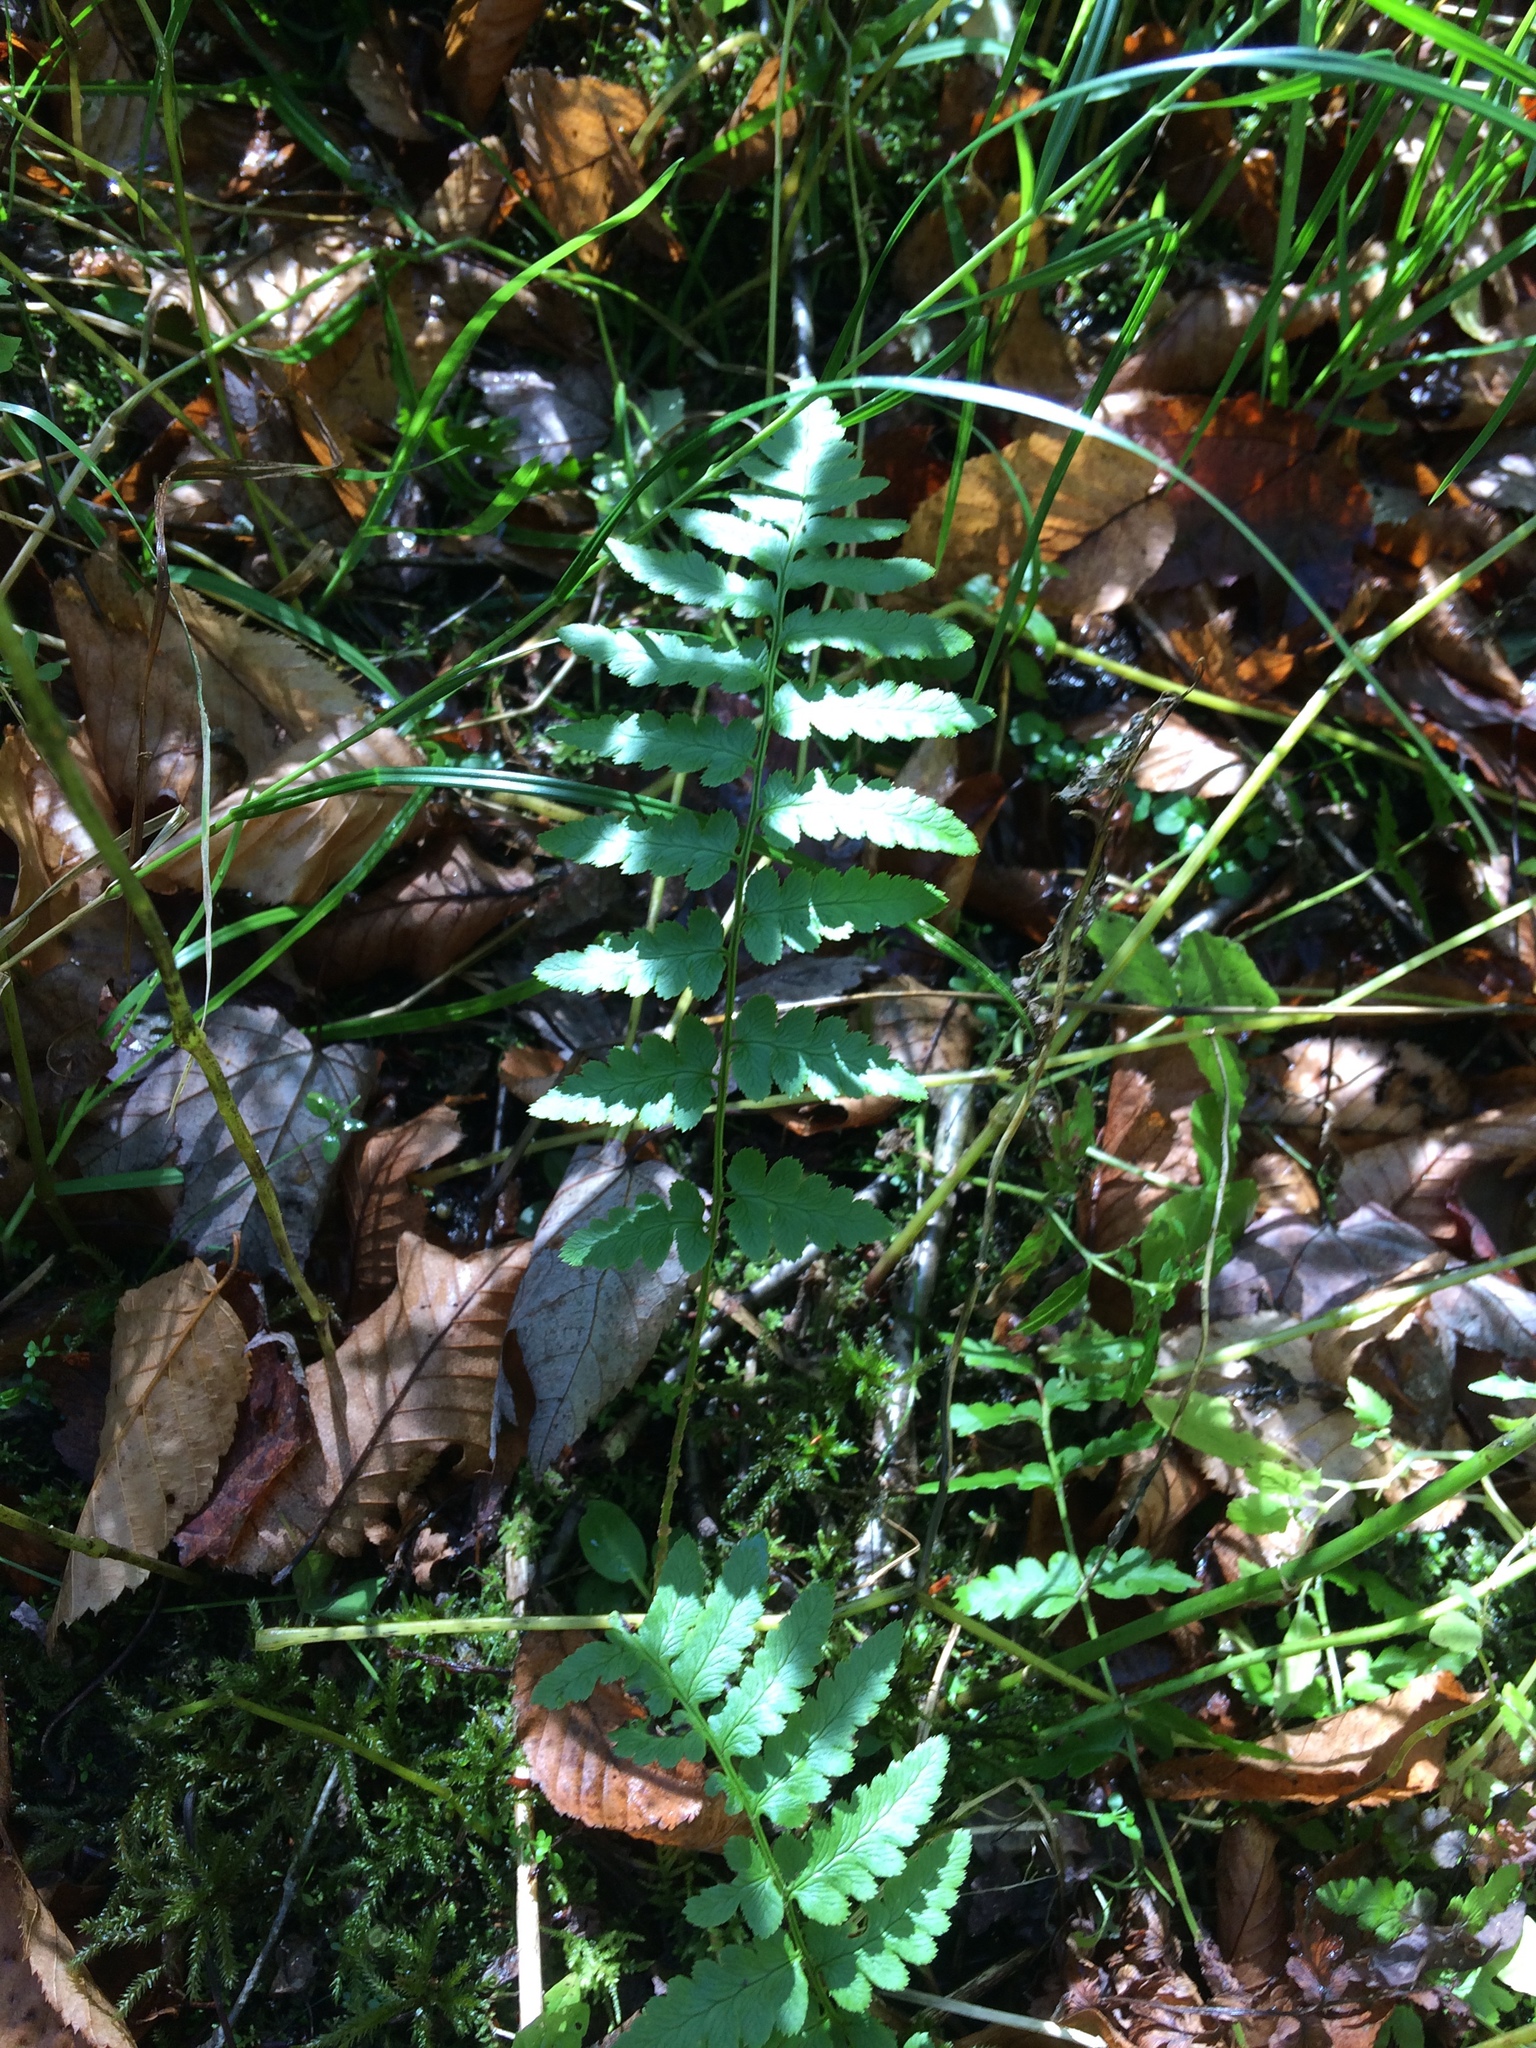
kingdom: Plantae
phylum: Tracheophyta
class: Polypodiopsida
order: Polypodiales
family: Dryopteridaceae
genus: Dryopteris
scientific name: Dryopteris cristata
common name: Crested wood fern
